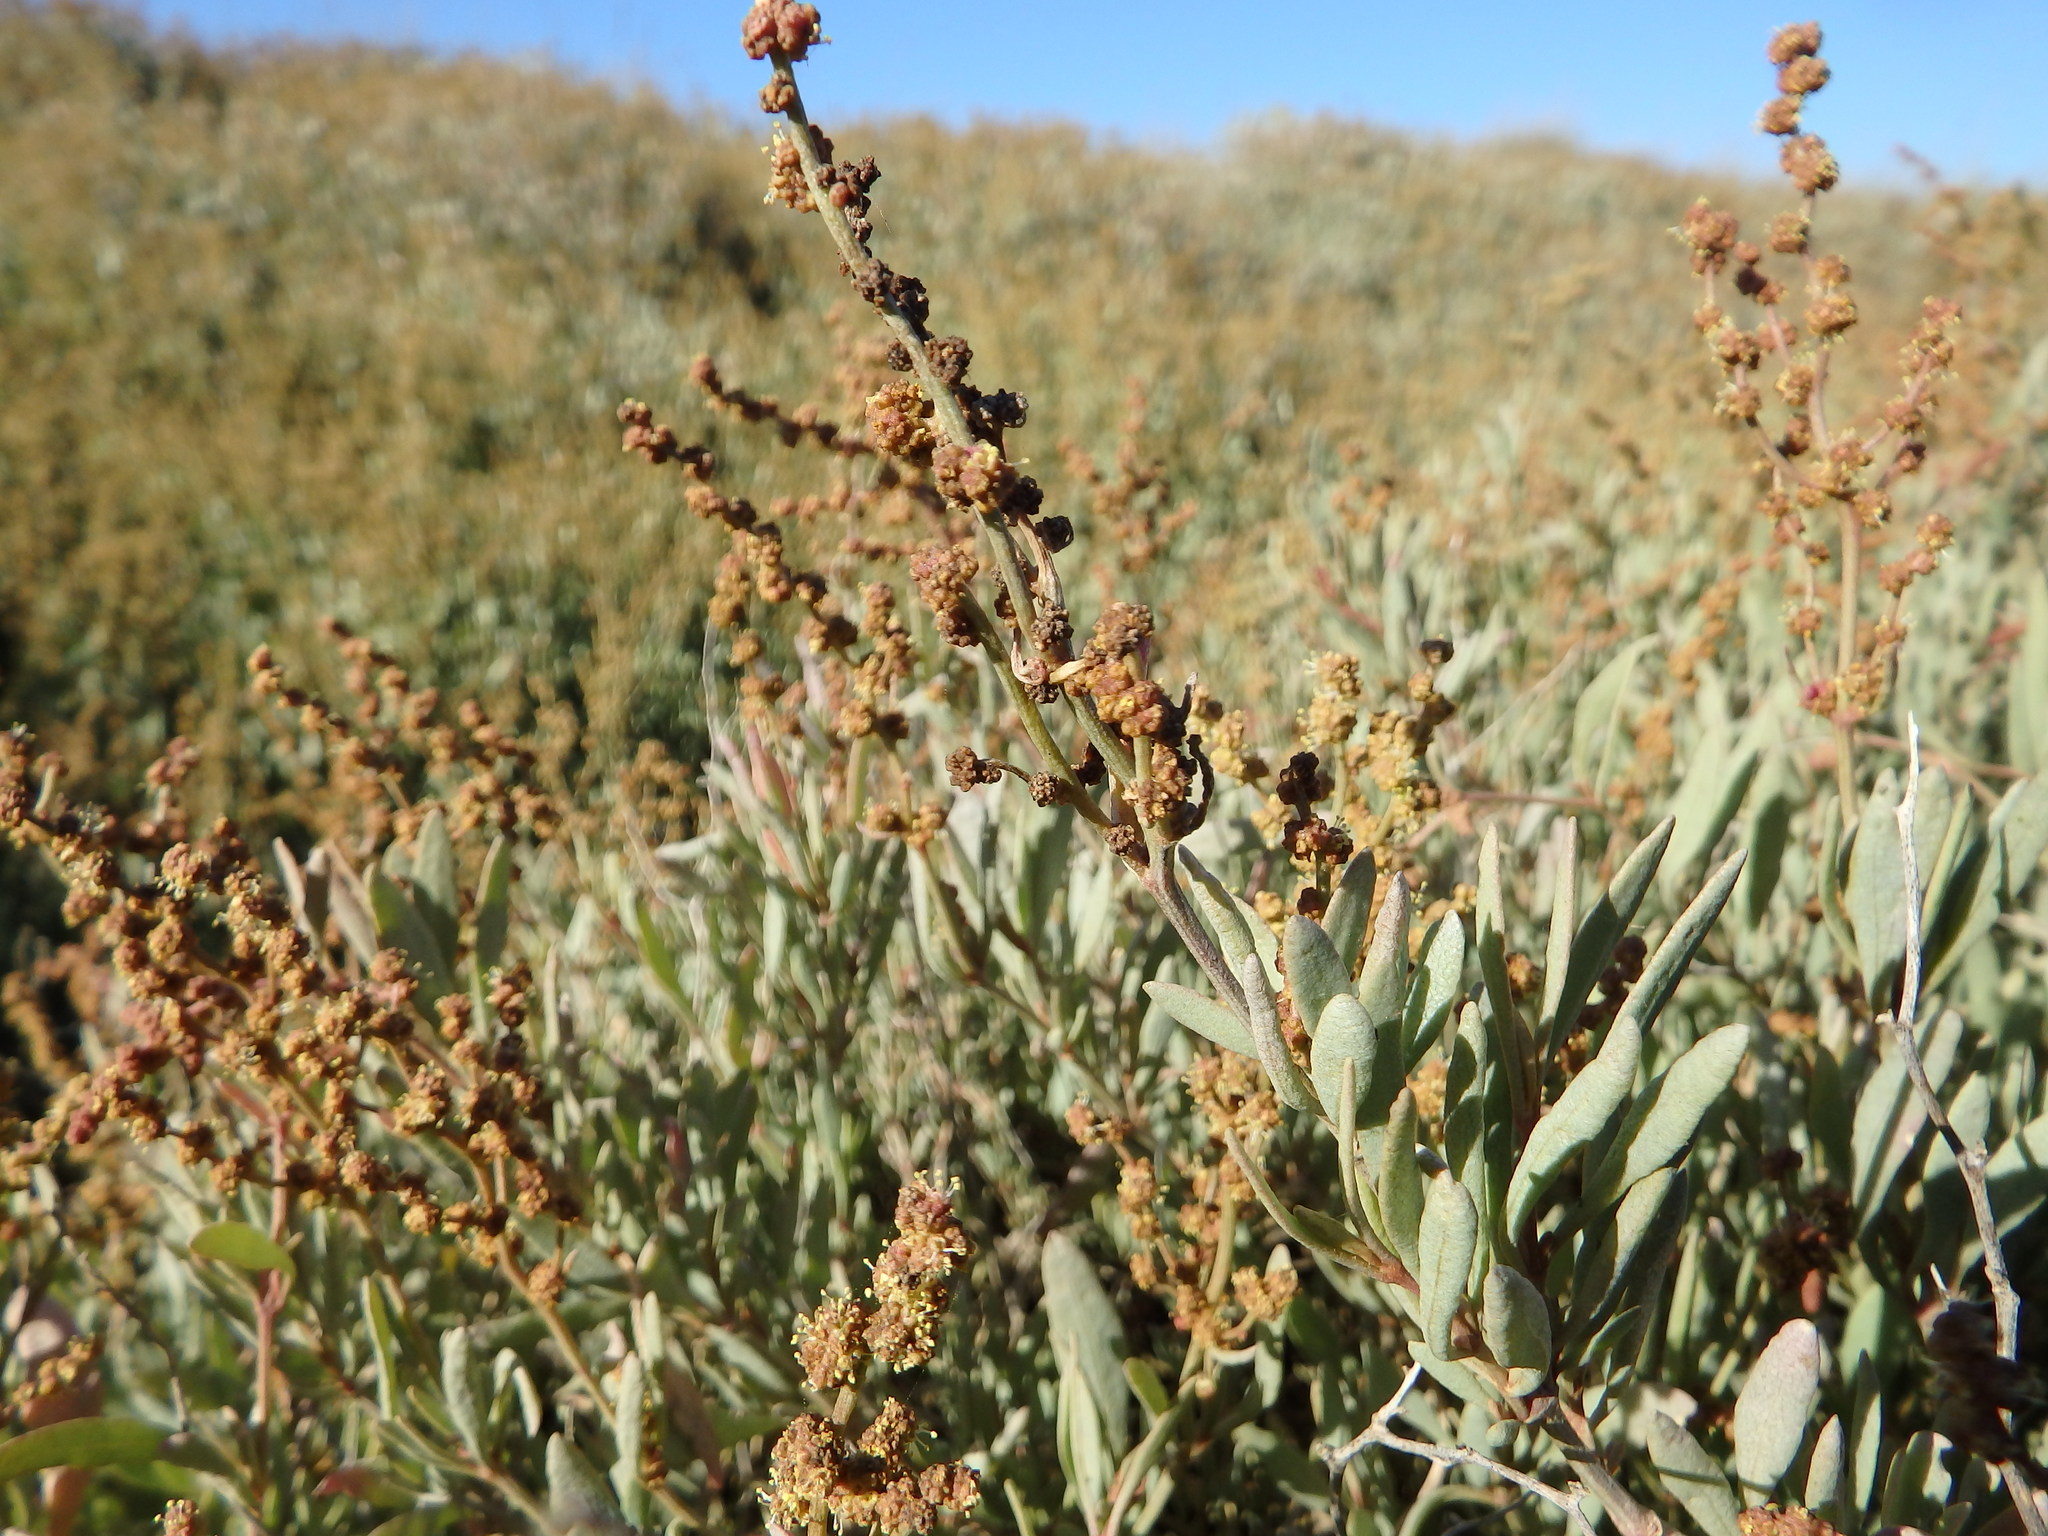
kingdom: Plantae
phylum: Tracheophyta
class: Magnoliopsida
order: Caryophyllales
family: Amaranthaceae
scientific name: Amaranthaceae
